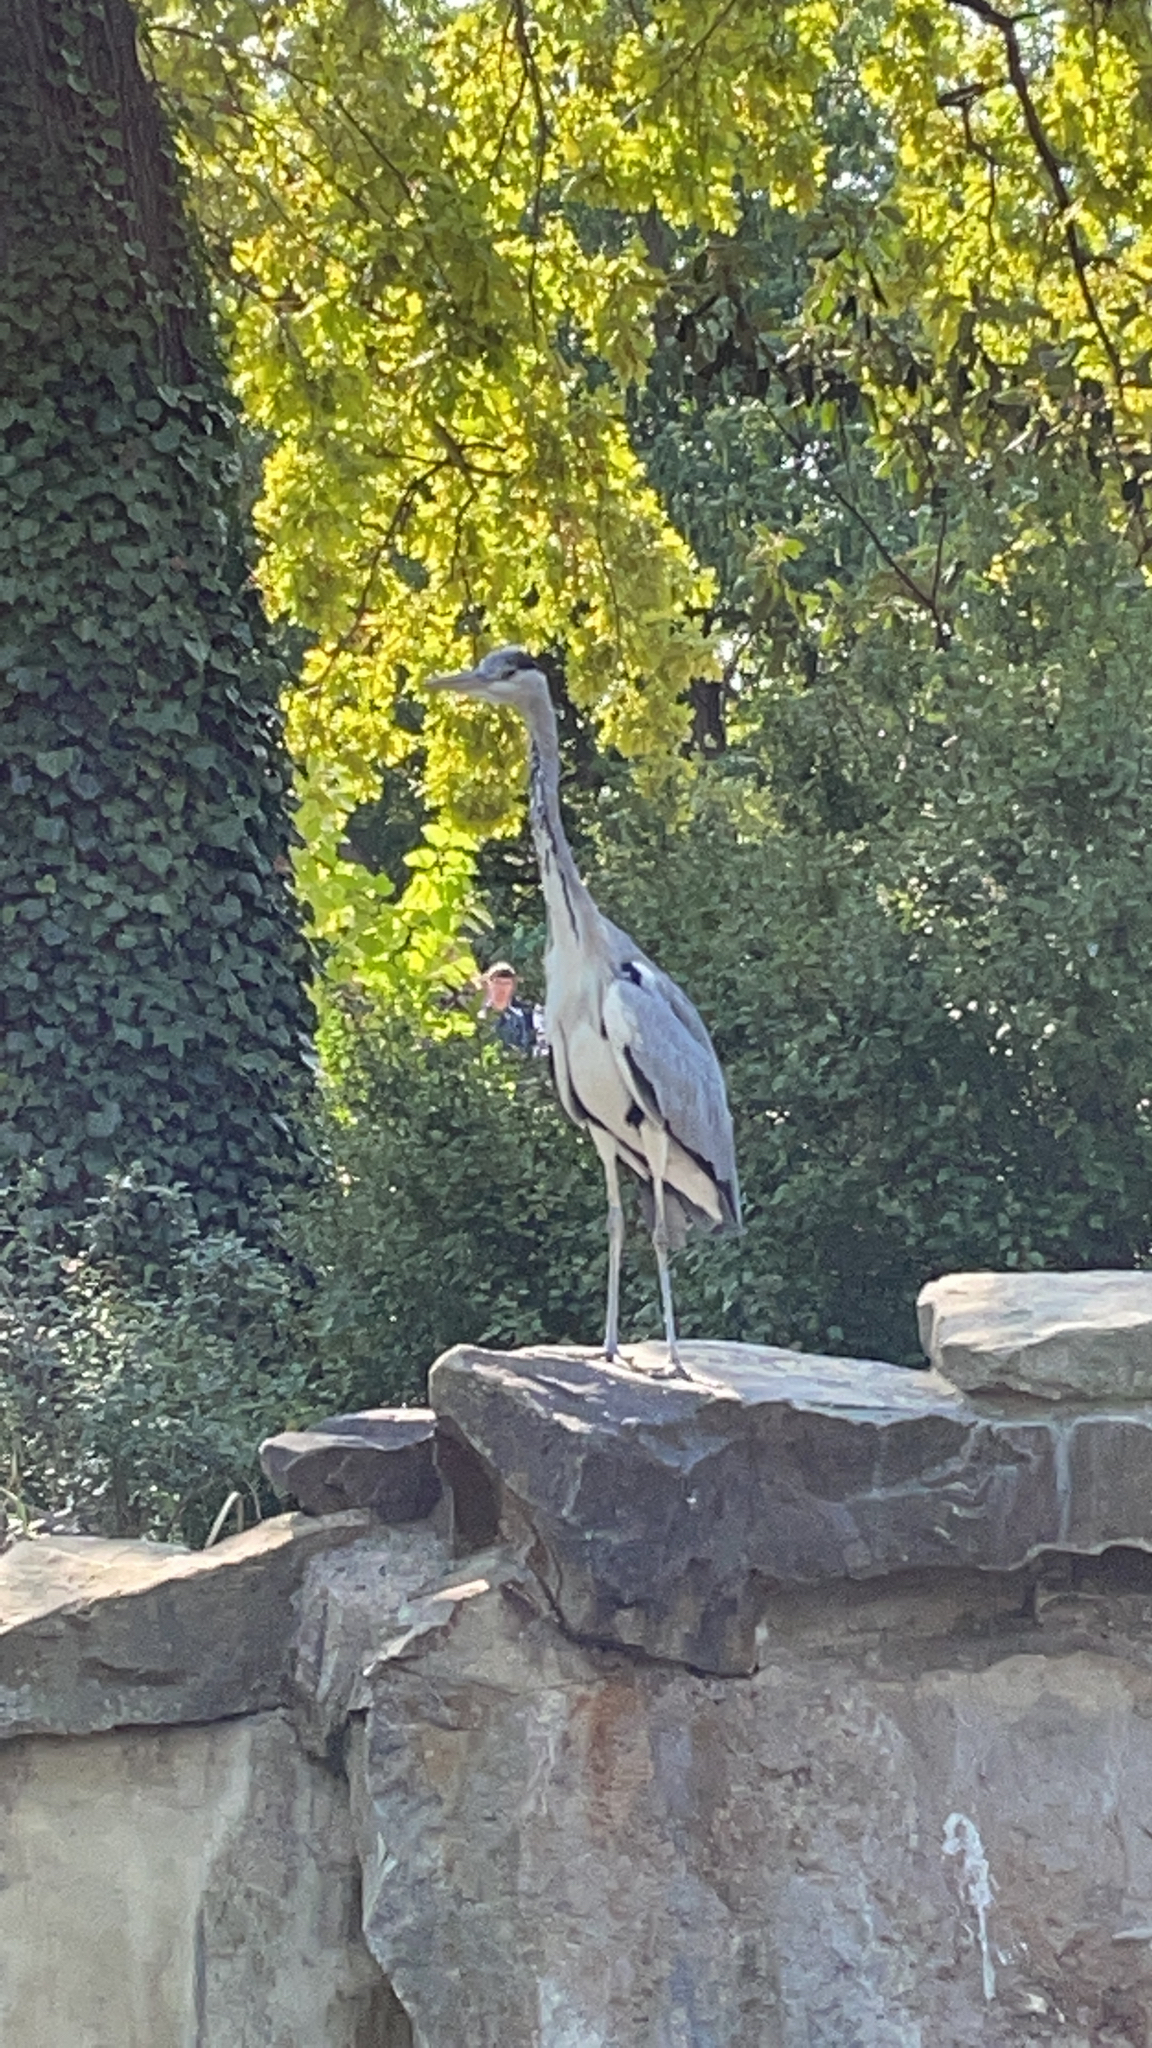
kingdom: Animalia
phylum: Chordata
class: Aves
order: Pelecaniformes
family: Ardeidae
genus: Ardea
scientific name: Ardea cinerea
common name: Grey heron
